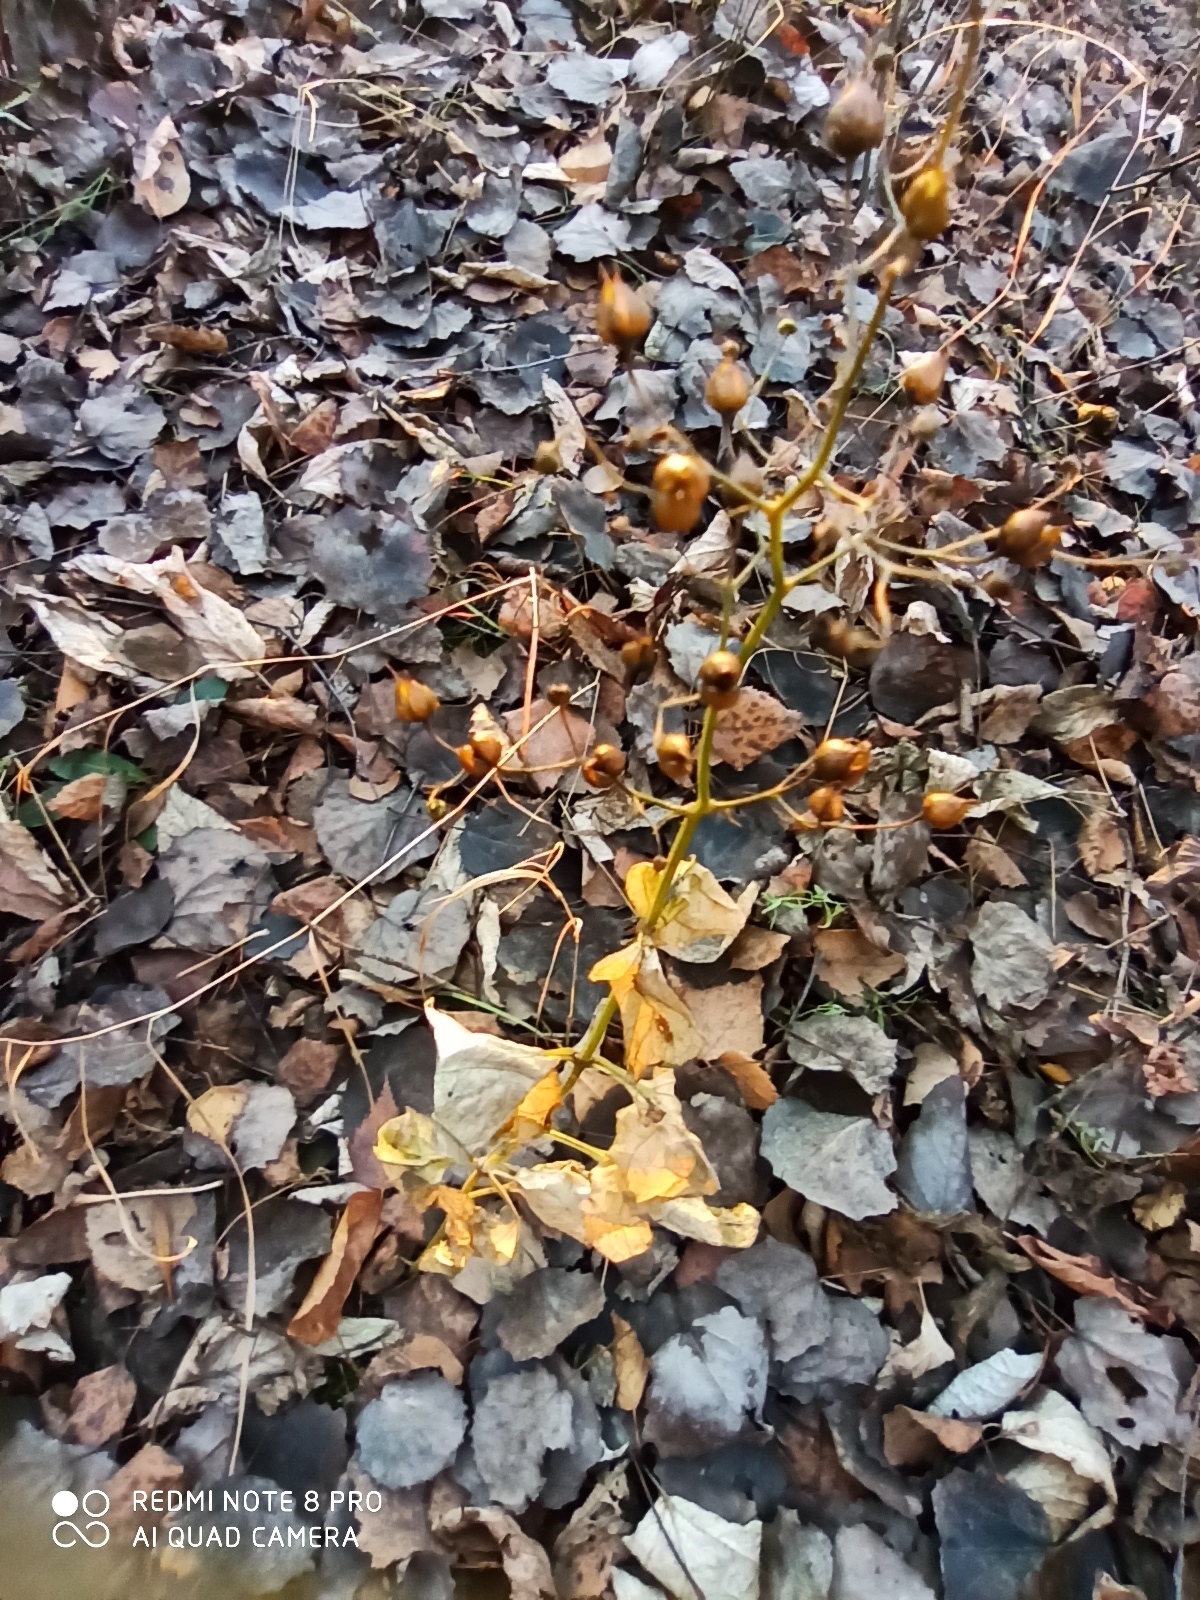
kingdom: Plantae
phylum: Tracheophyta
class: Magnoliopsida
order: Lamiales
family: Scrophulariaceae
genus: Scrophularia
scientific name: Scrophularia nodosa
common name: Common figwort
